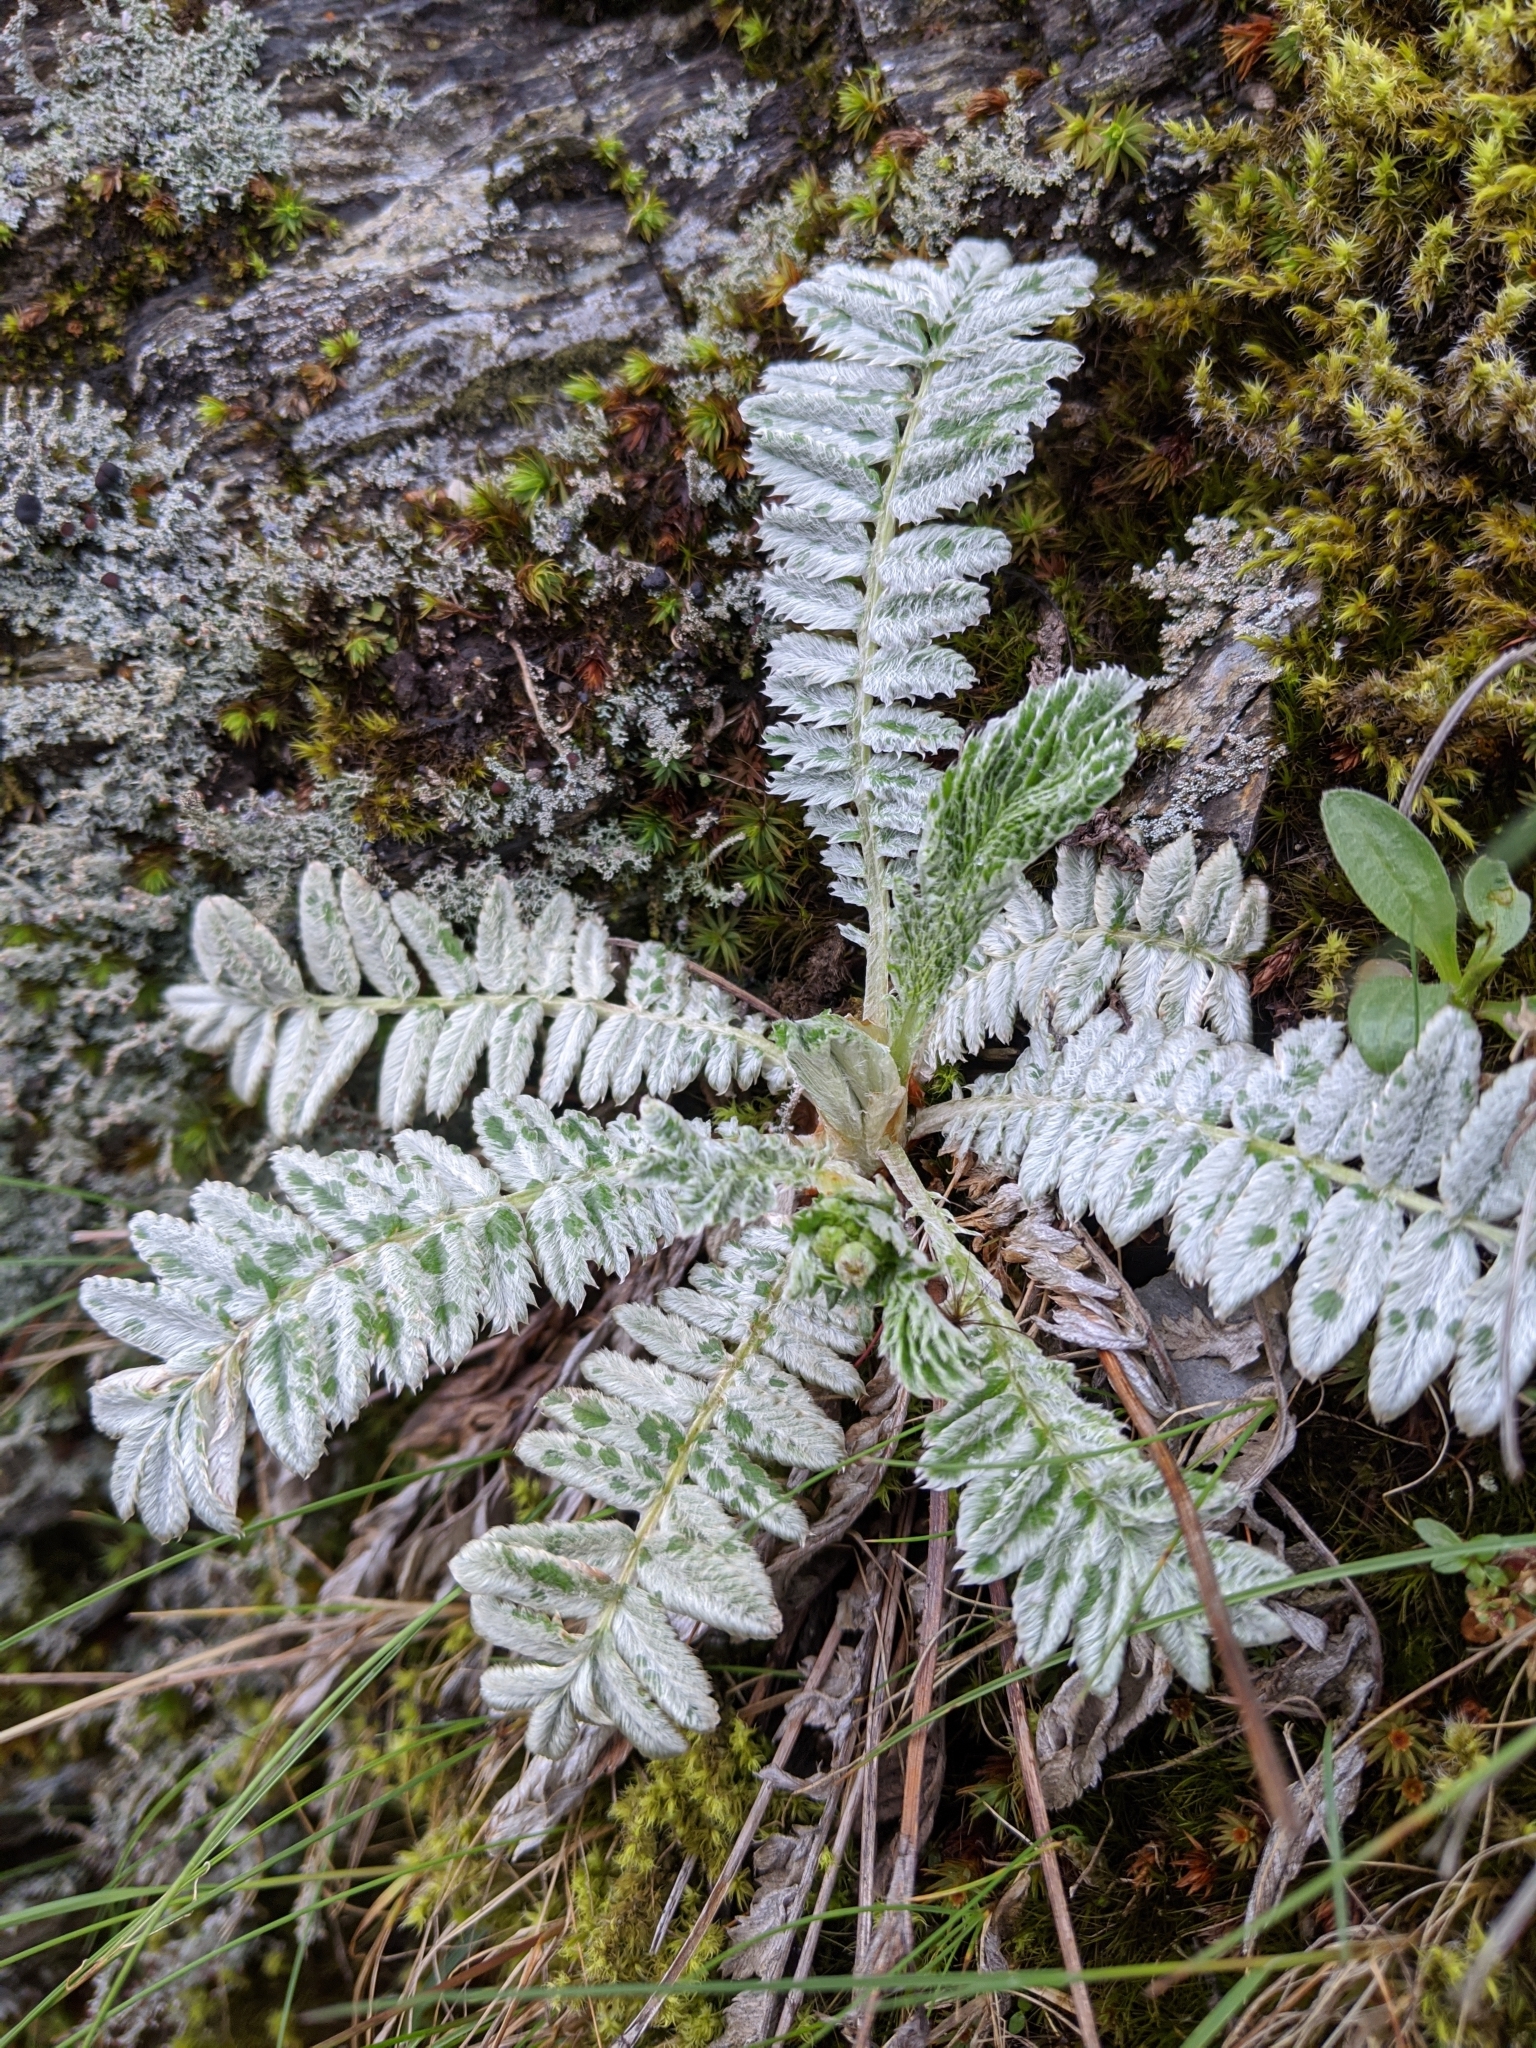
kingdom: Plantae
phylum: Tracheophyta
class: Magnoliopsida
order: Rosales
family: Rosaceae
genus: Argentina
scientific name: Argentina leuconota
